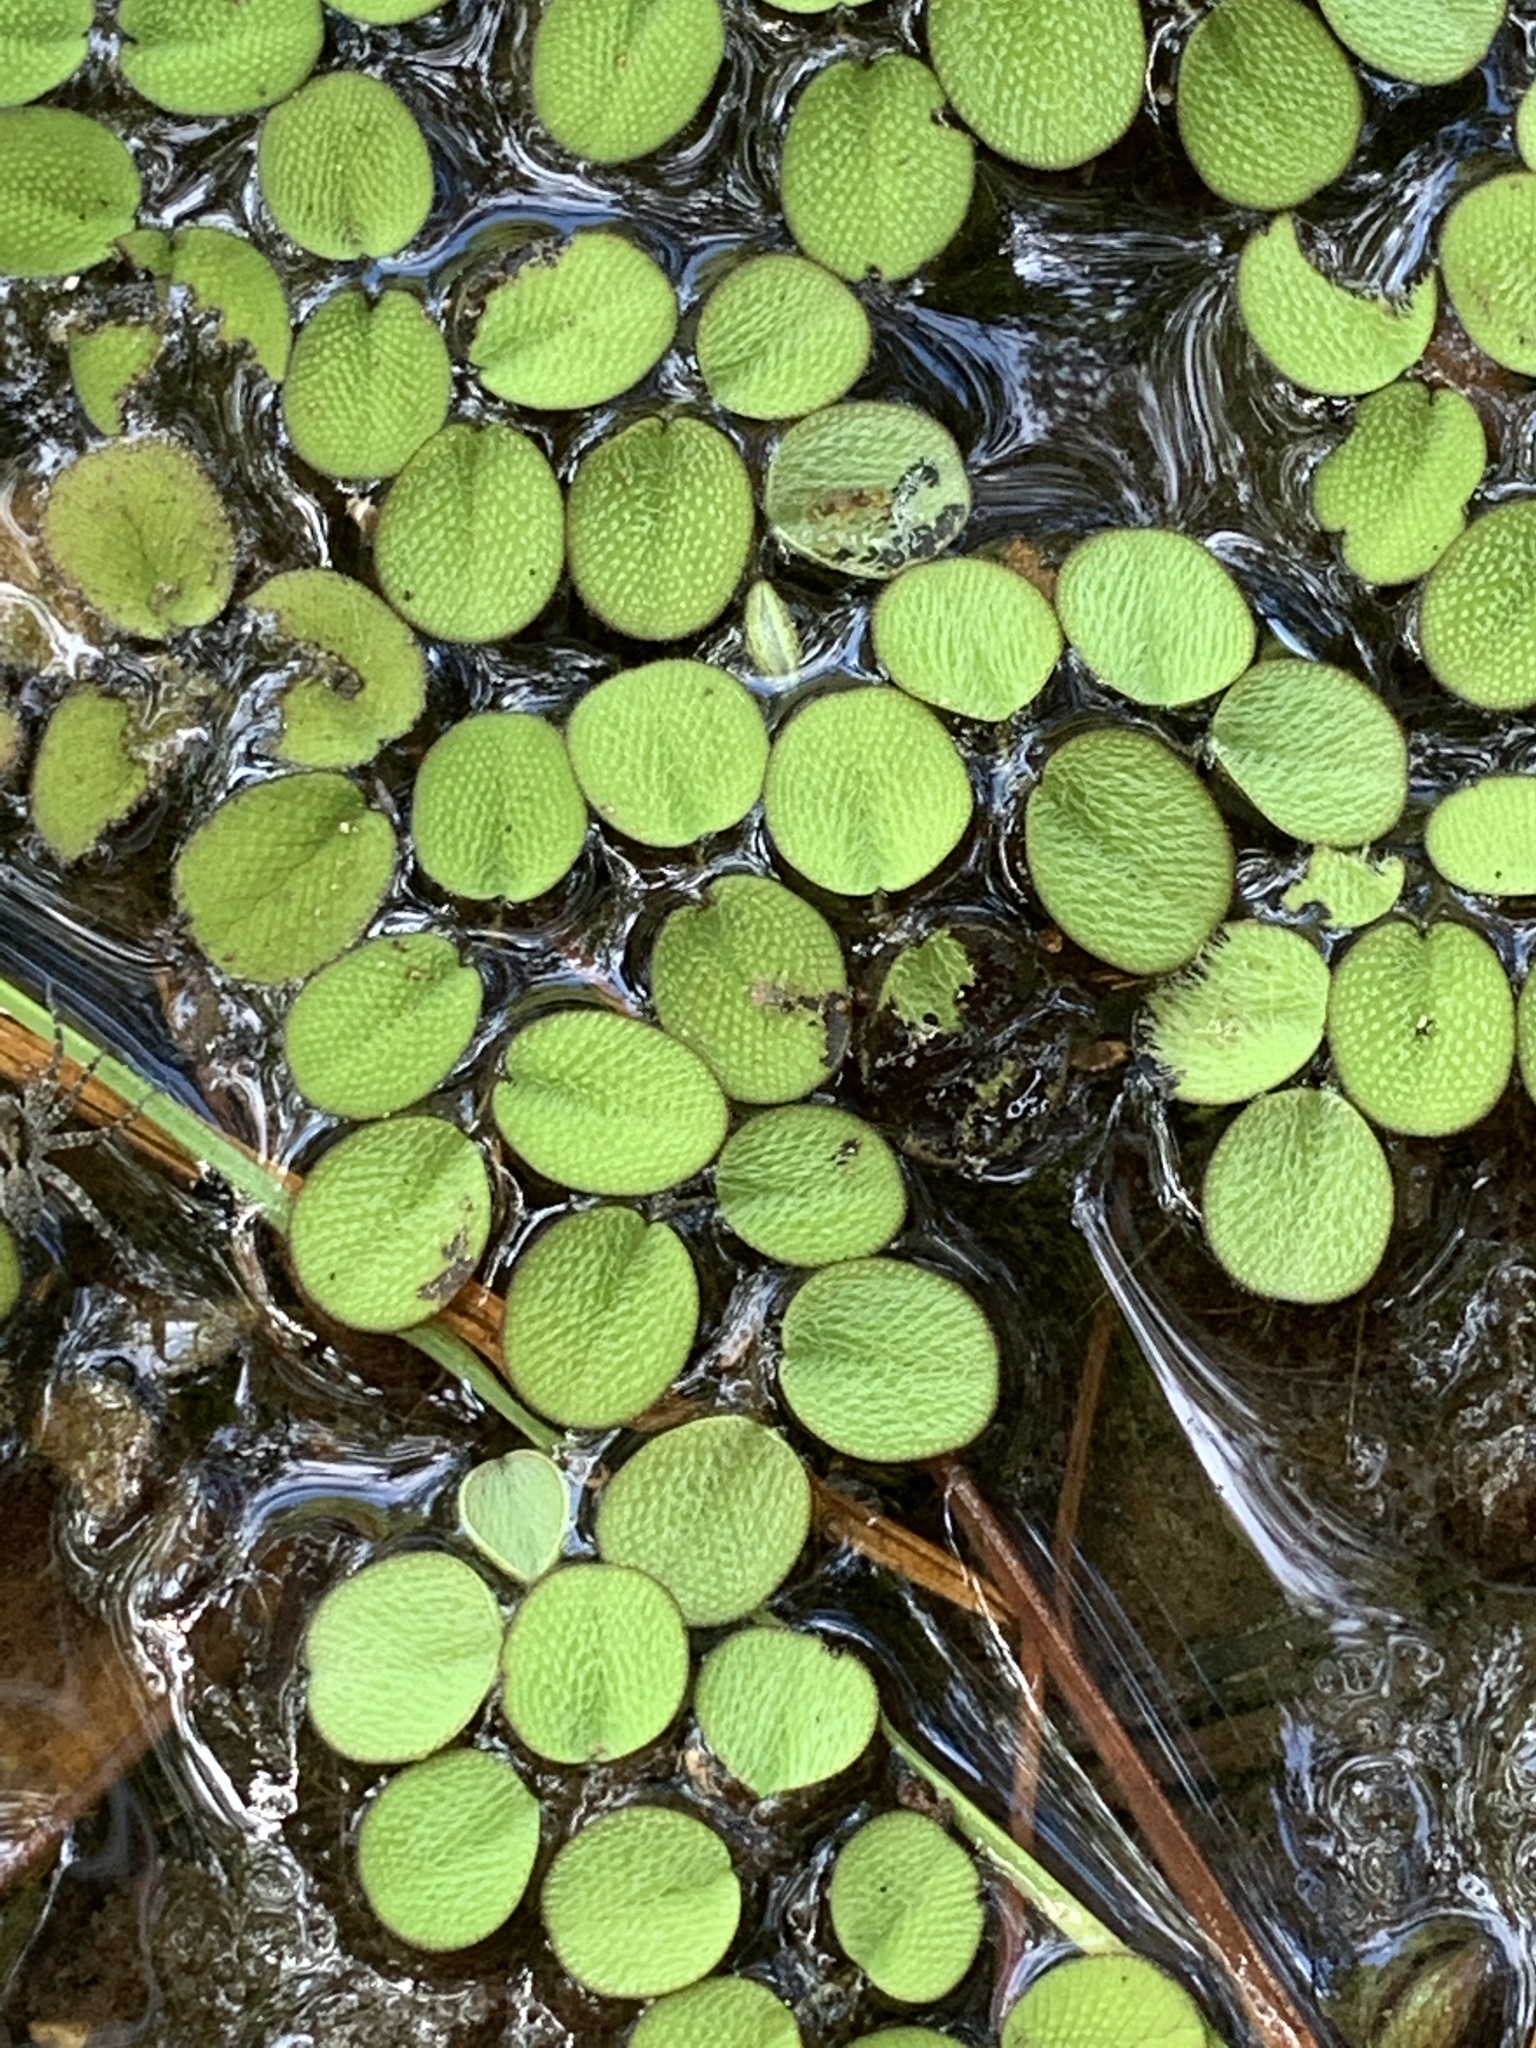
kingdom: Plantae
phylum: Tracheophyta
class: Polypodiopsida
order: Salviniales
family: Salviniaceae
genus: Salvinia
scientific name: Salvinia minima
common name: Water spangles
